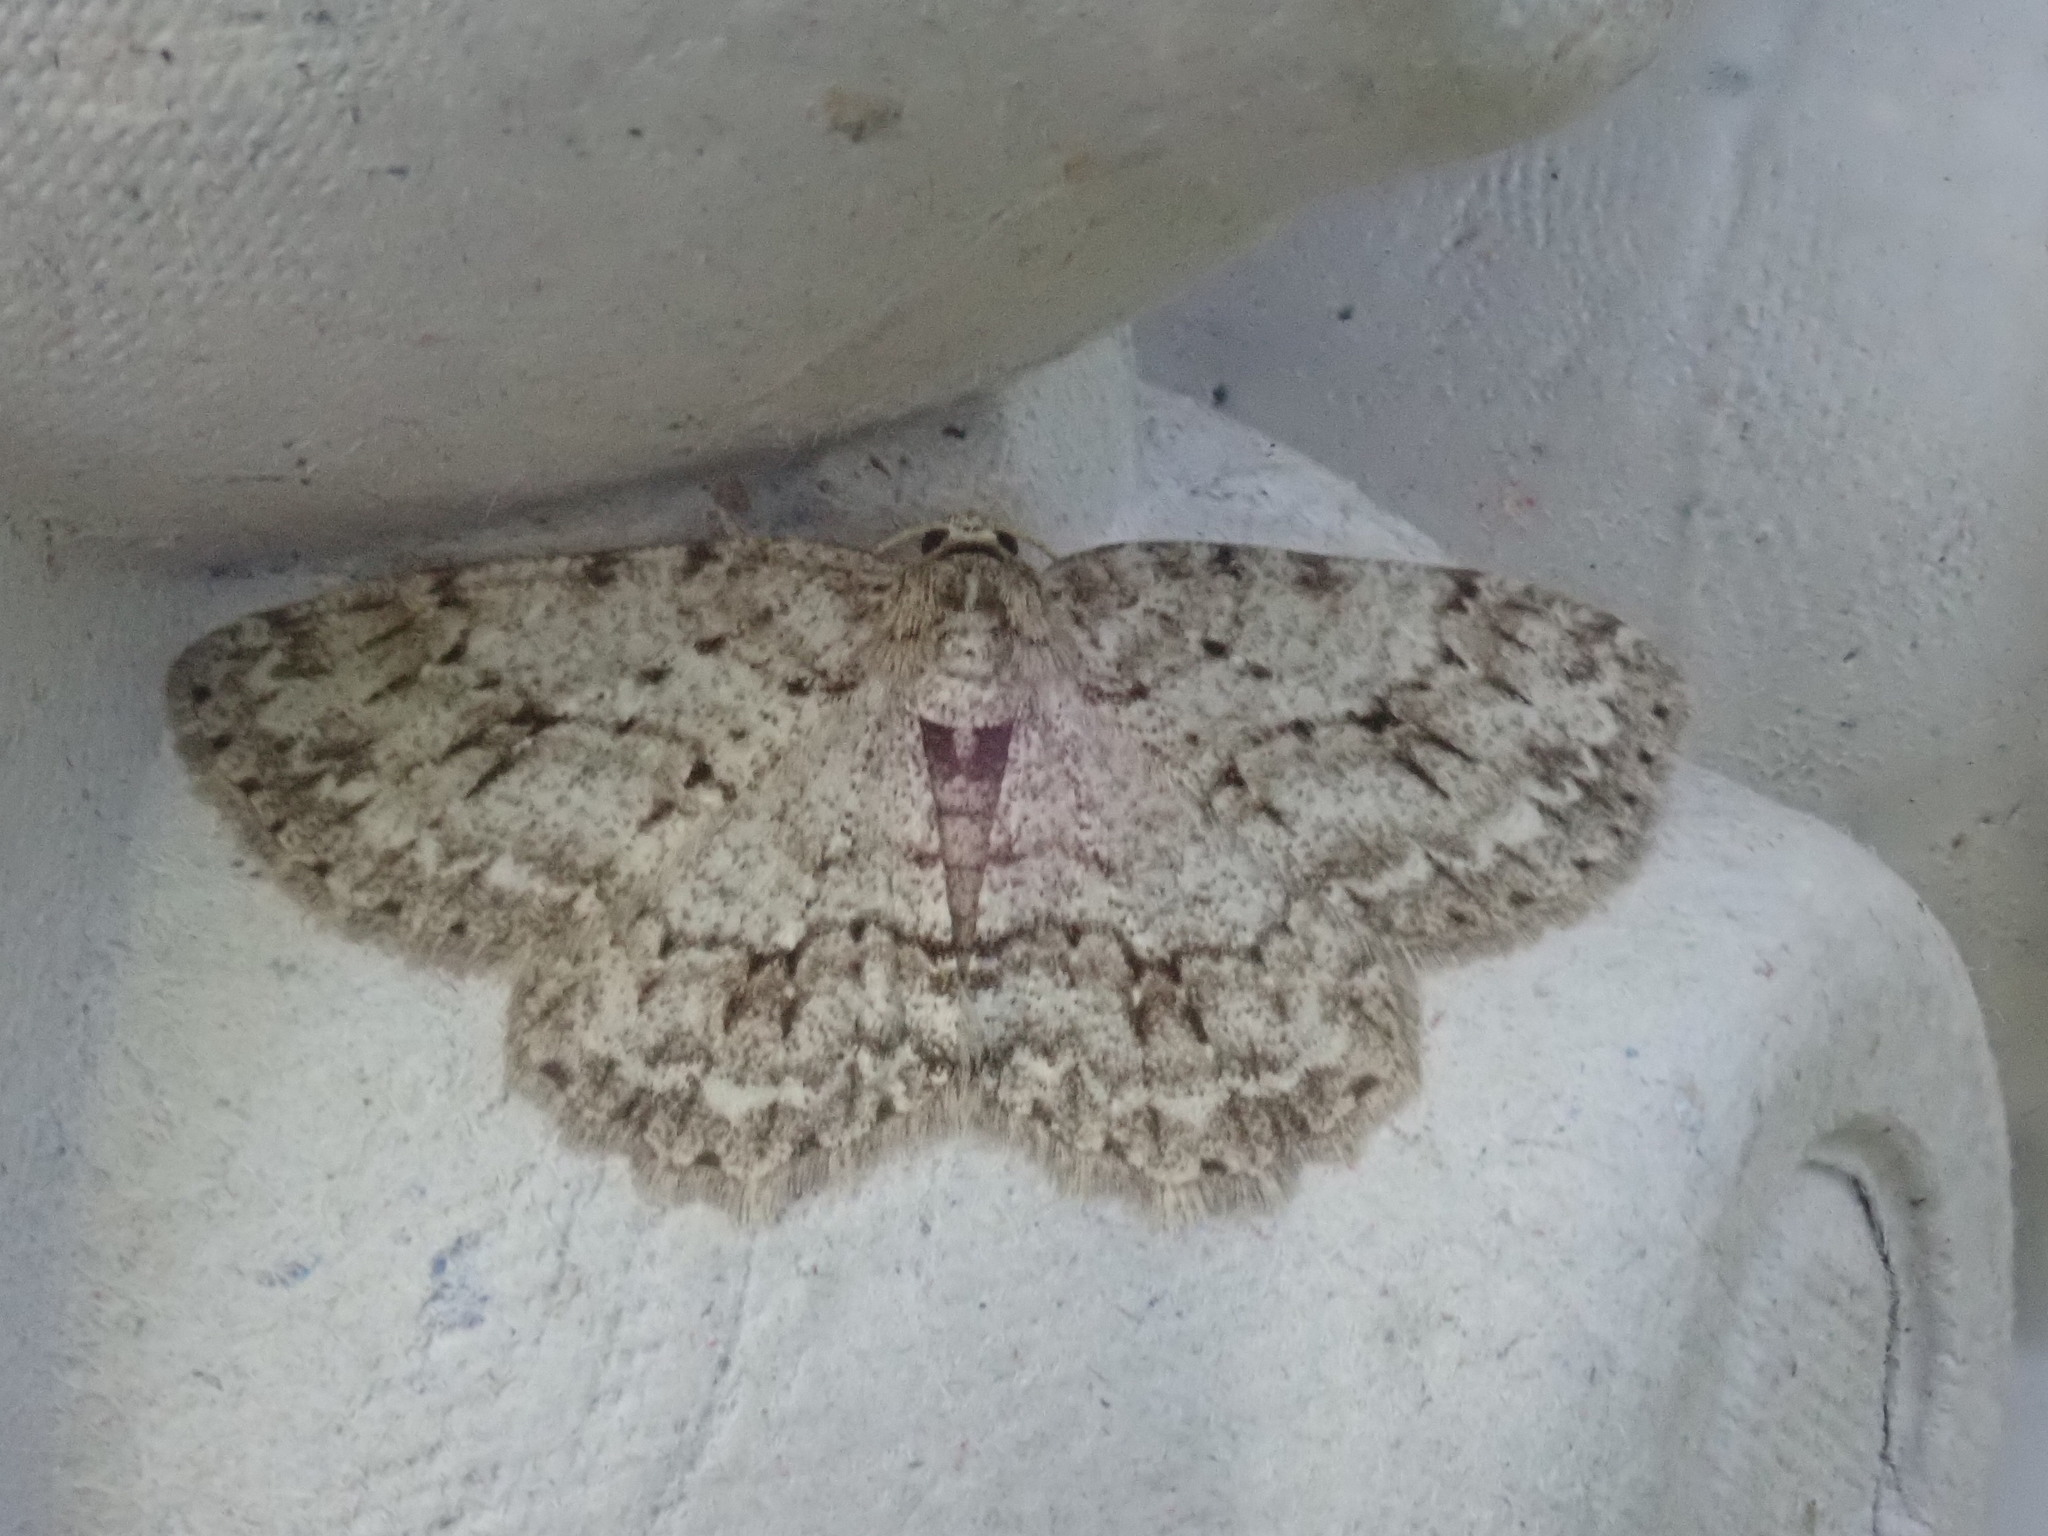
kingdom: Animalia
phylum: Arthropoda
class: Insecta
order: Lepidoptera
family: Geometridae
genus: Ectropis
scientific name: Ectropis crepuscularia
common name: Engrailed
